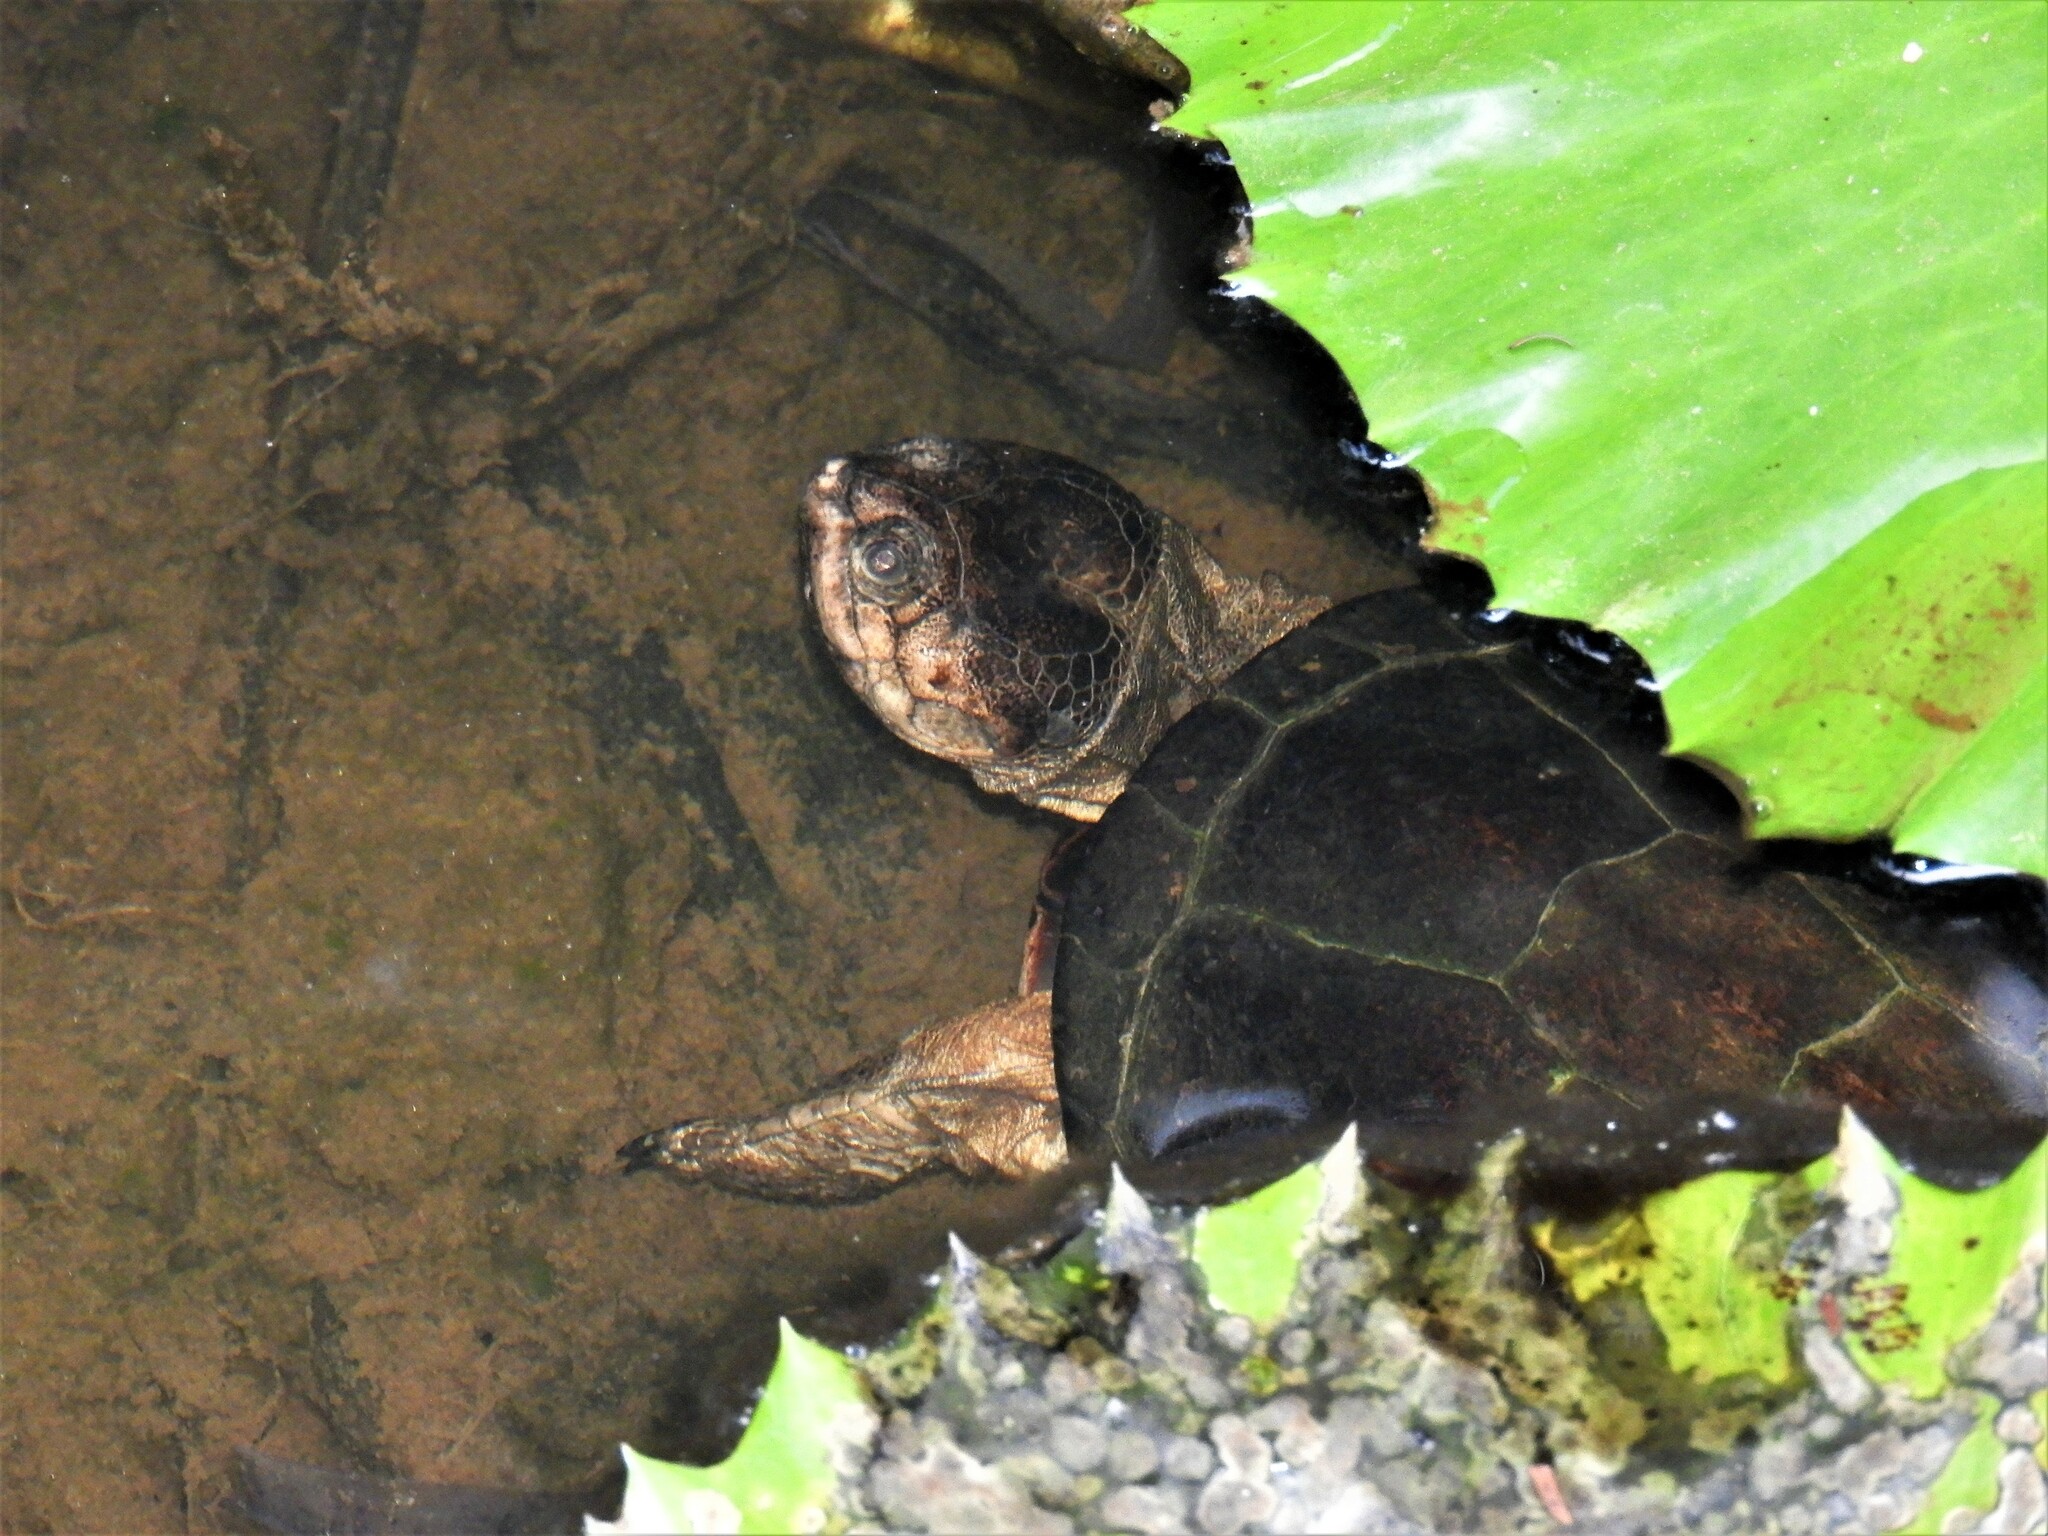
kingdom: Animalia
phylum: Chordata
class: Testudines
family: Pelomedusidae
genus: Pelusios
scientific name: Pelusios castanoides
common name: Yellow-bellied mud turtle
